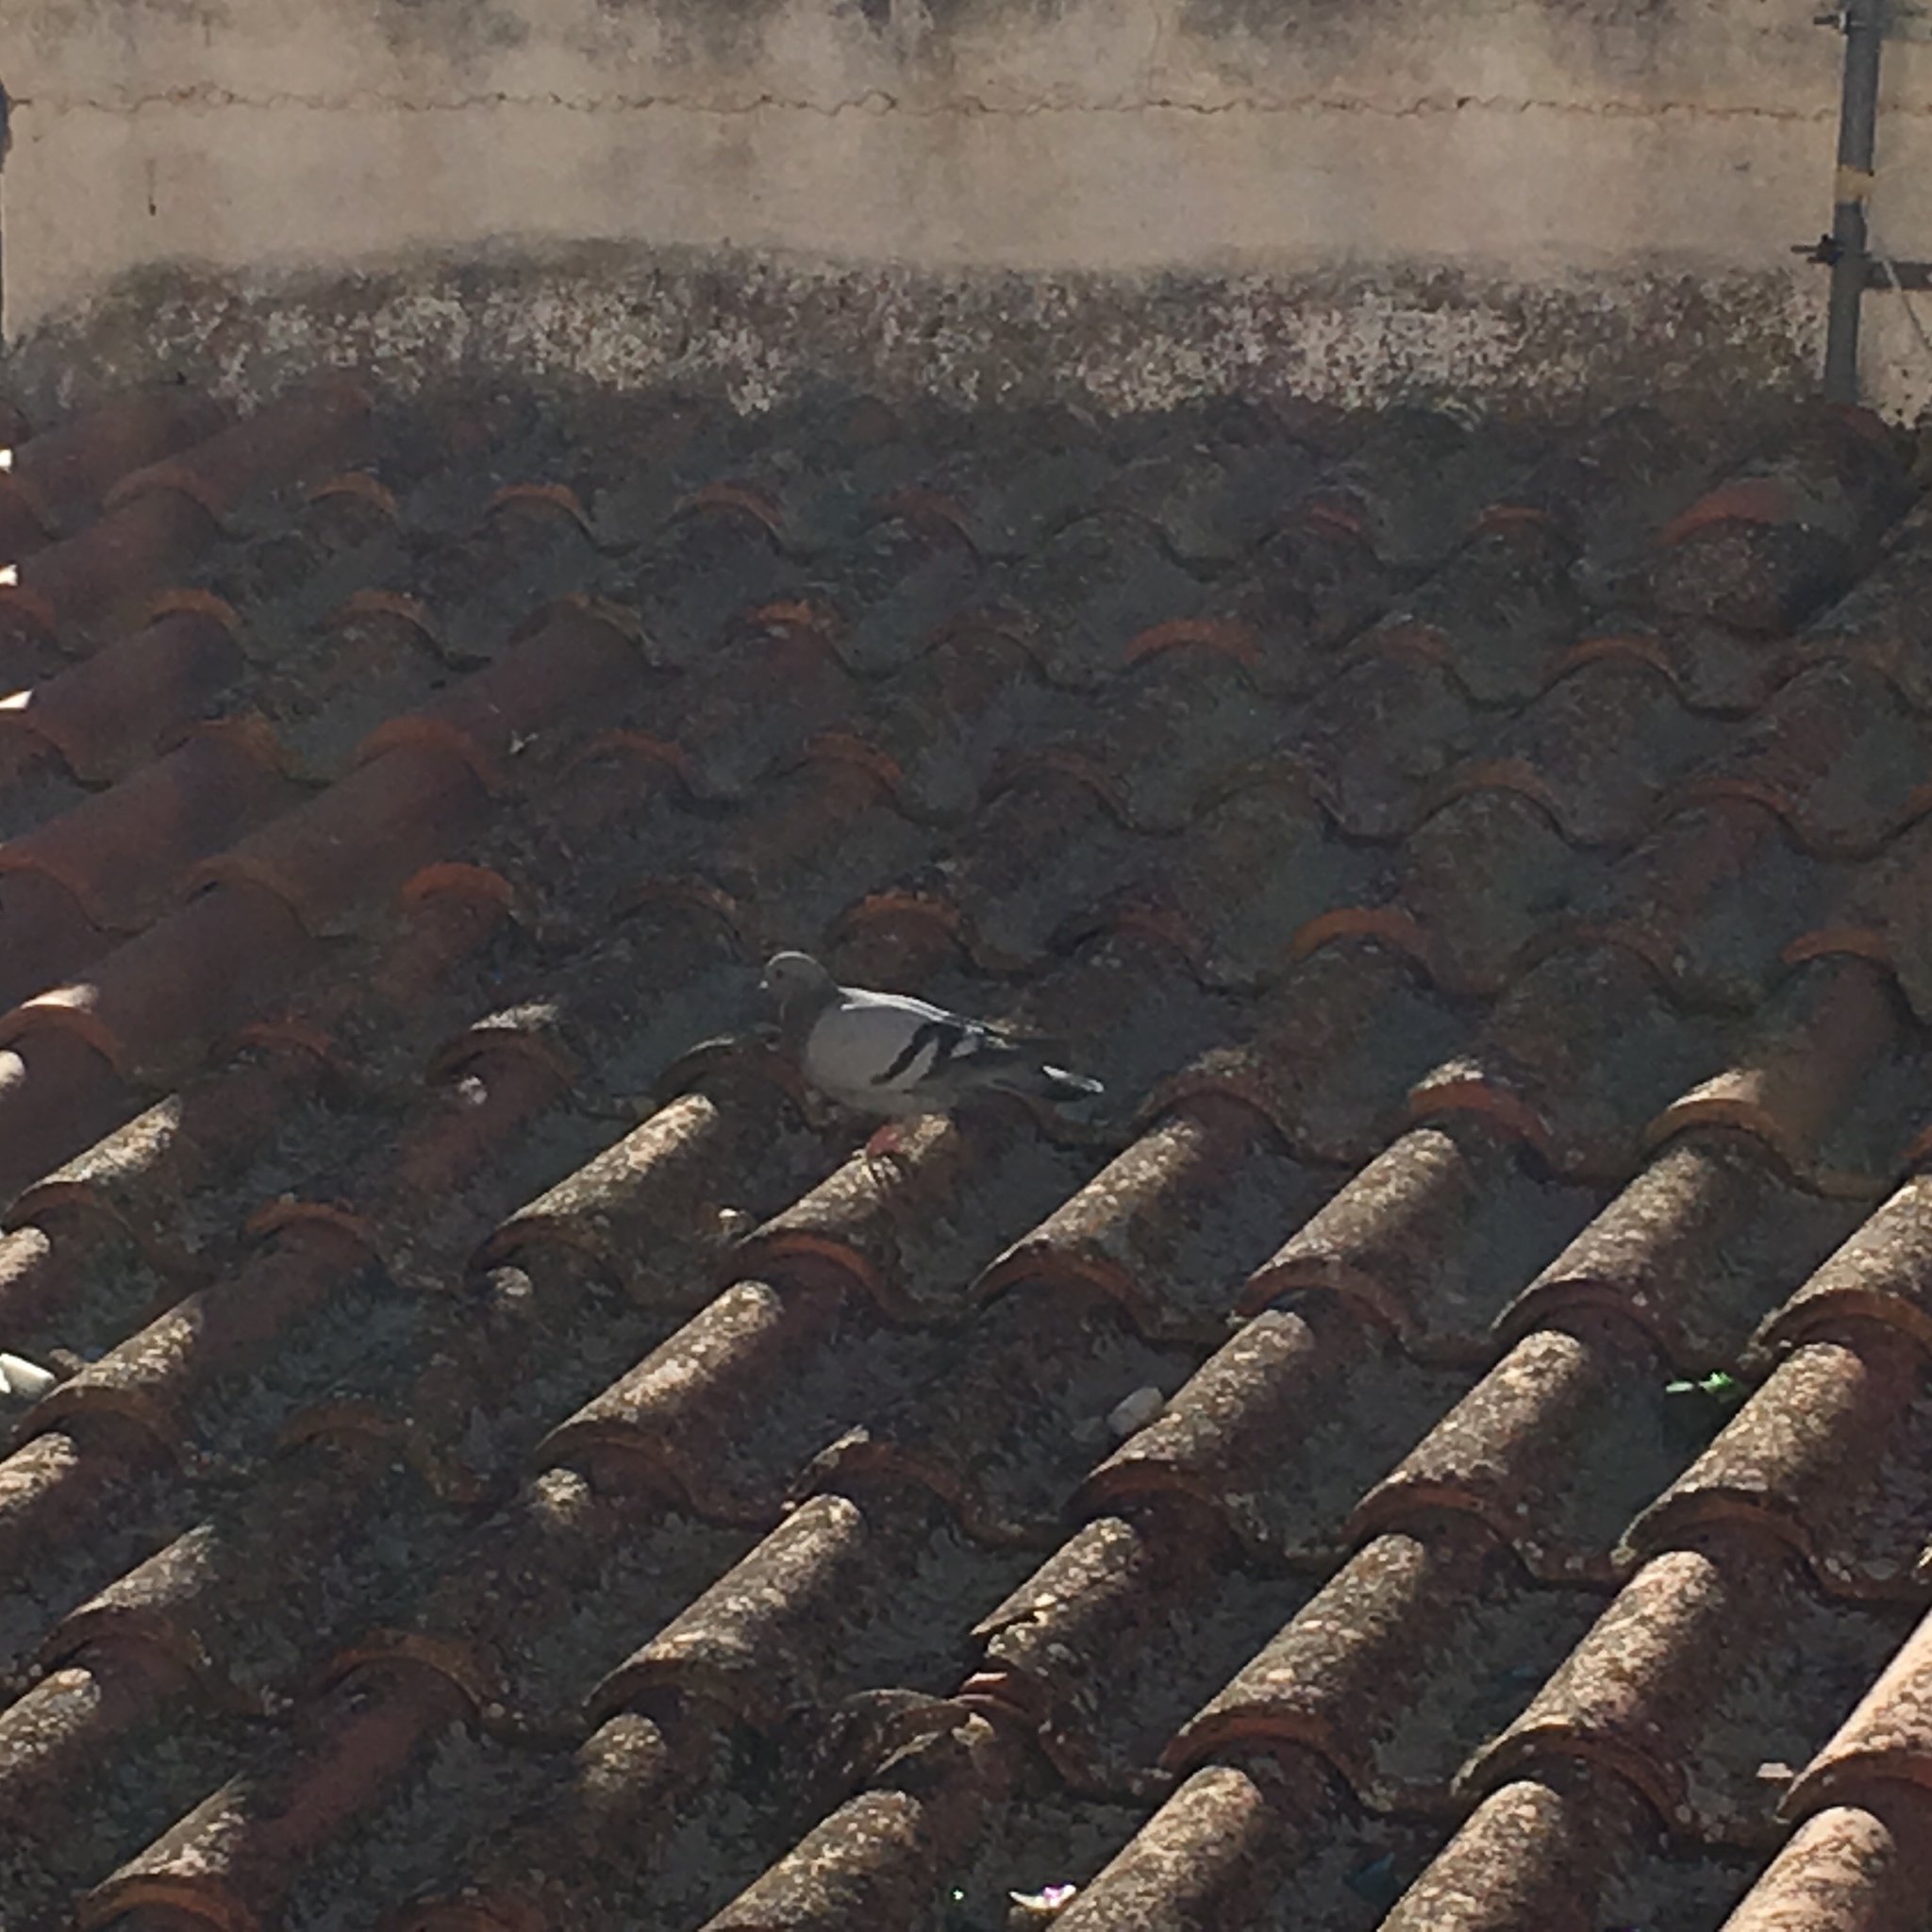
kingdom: Animalia
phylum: Chordata
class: Aves
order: Columbiformes
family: Columbidae
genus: Columba
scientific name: Columba livia
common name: Rock pigeon
